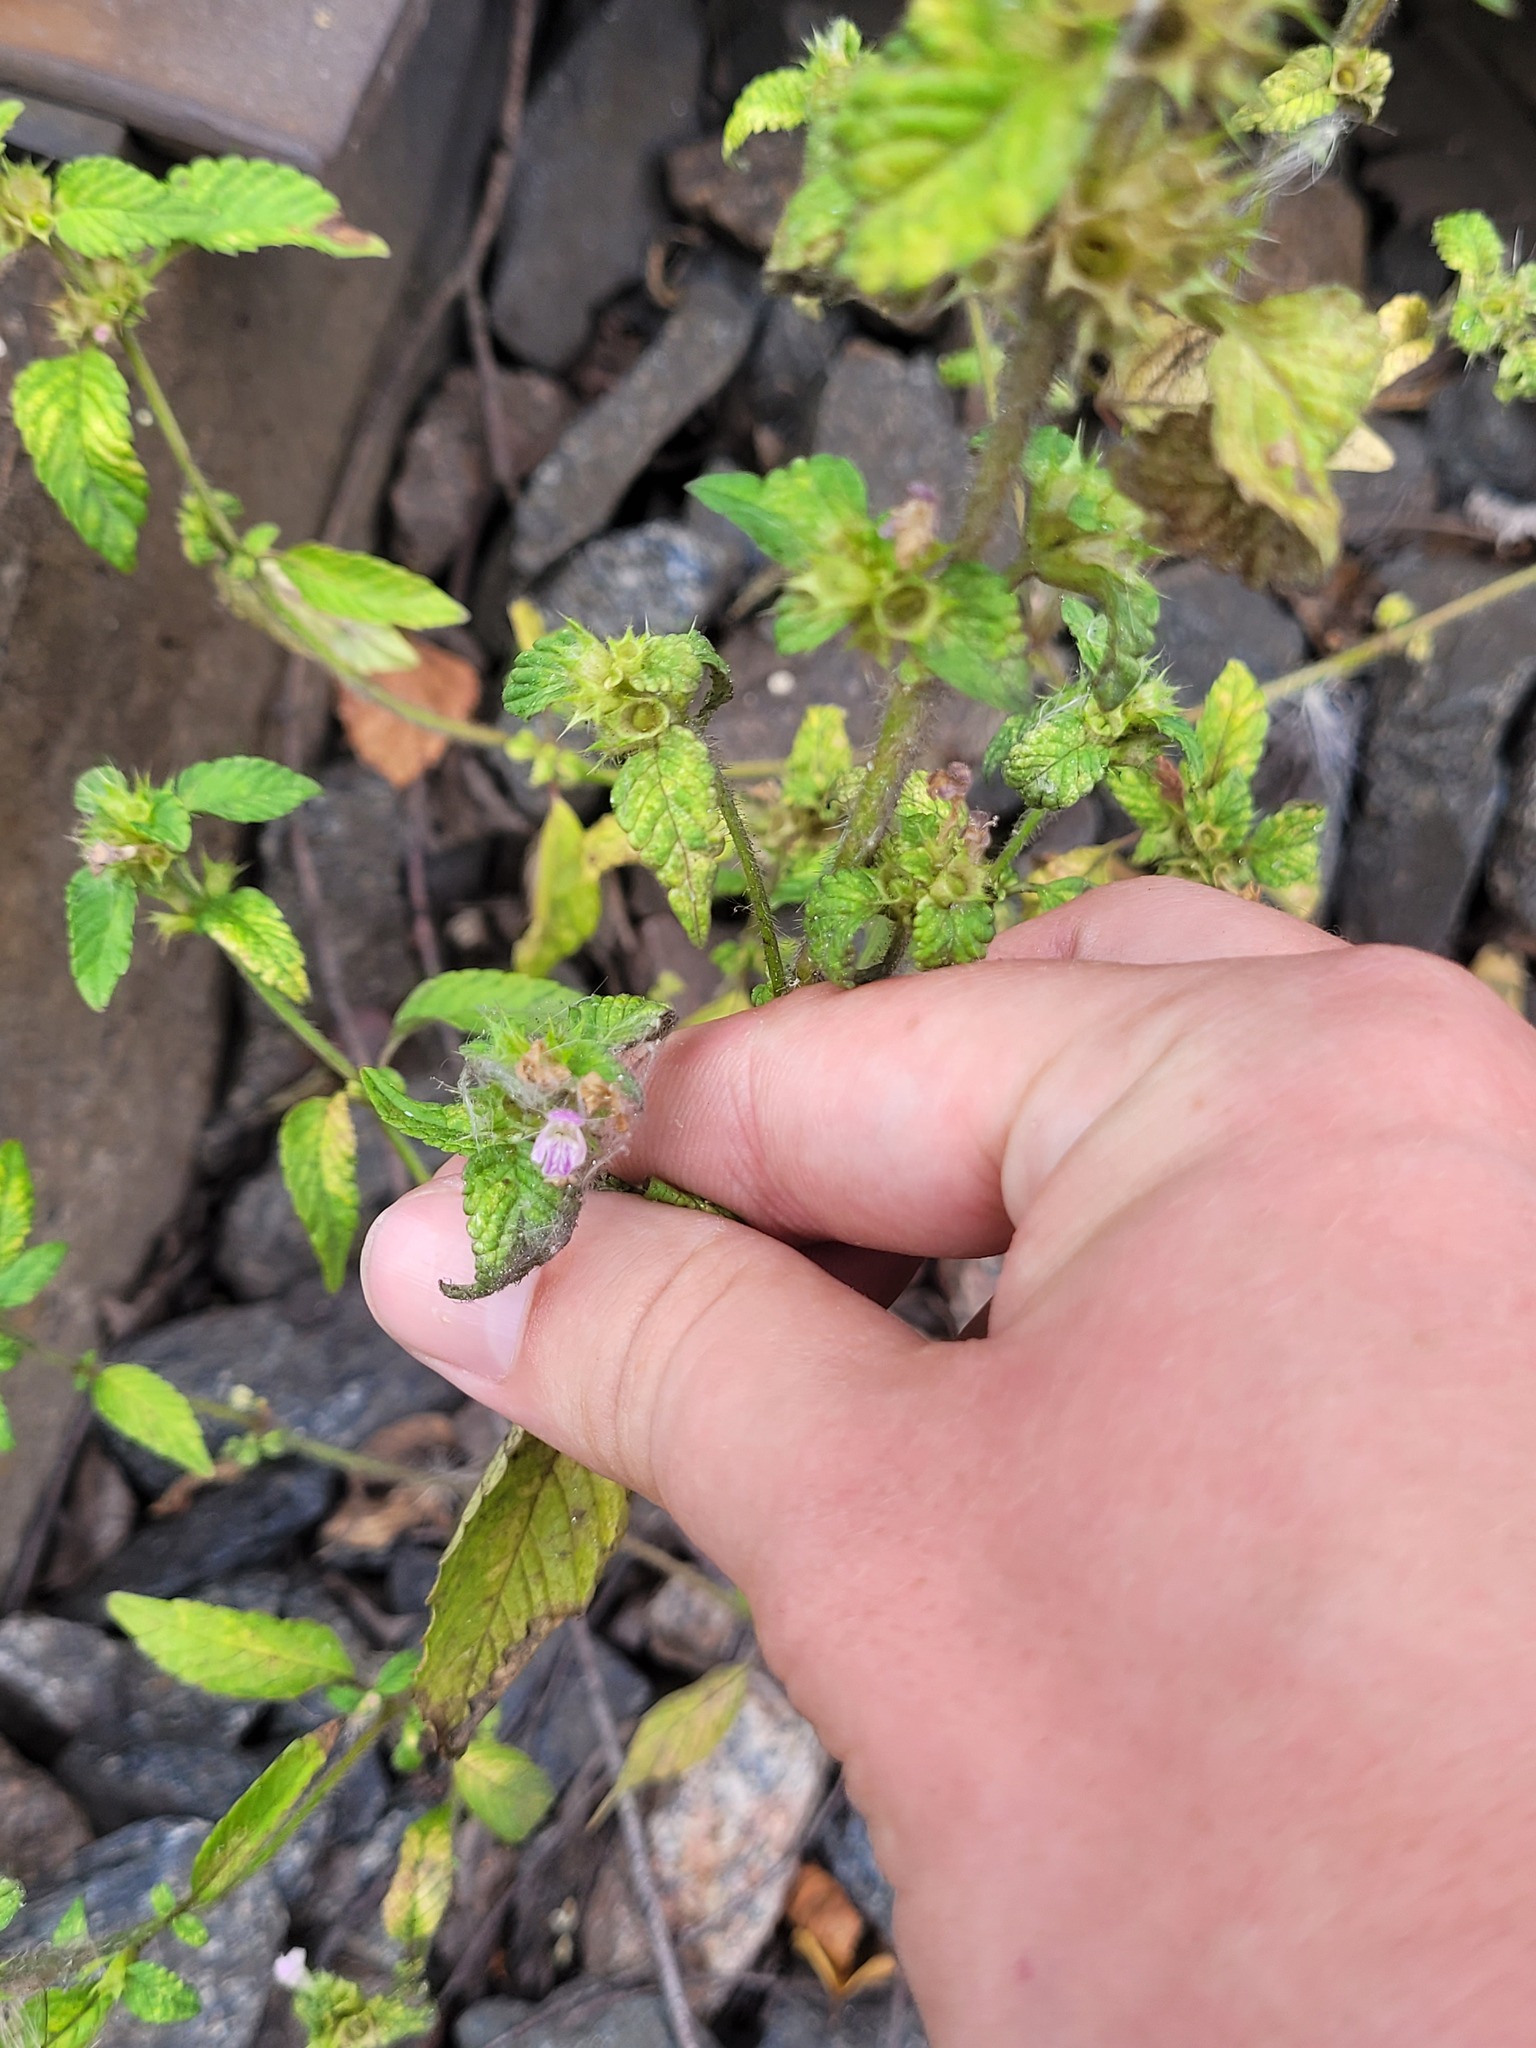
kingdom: Plantae
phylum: Tracheophyta
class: Magnoliopsida
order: Lamiales
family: Lamiaceae
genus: Galeopsis
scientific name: Galeopsis bifida
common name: Bifid hemp-nettle
